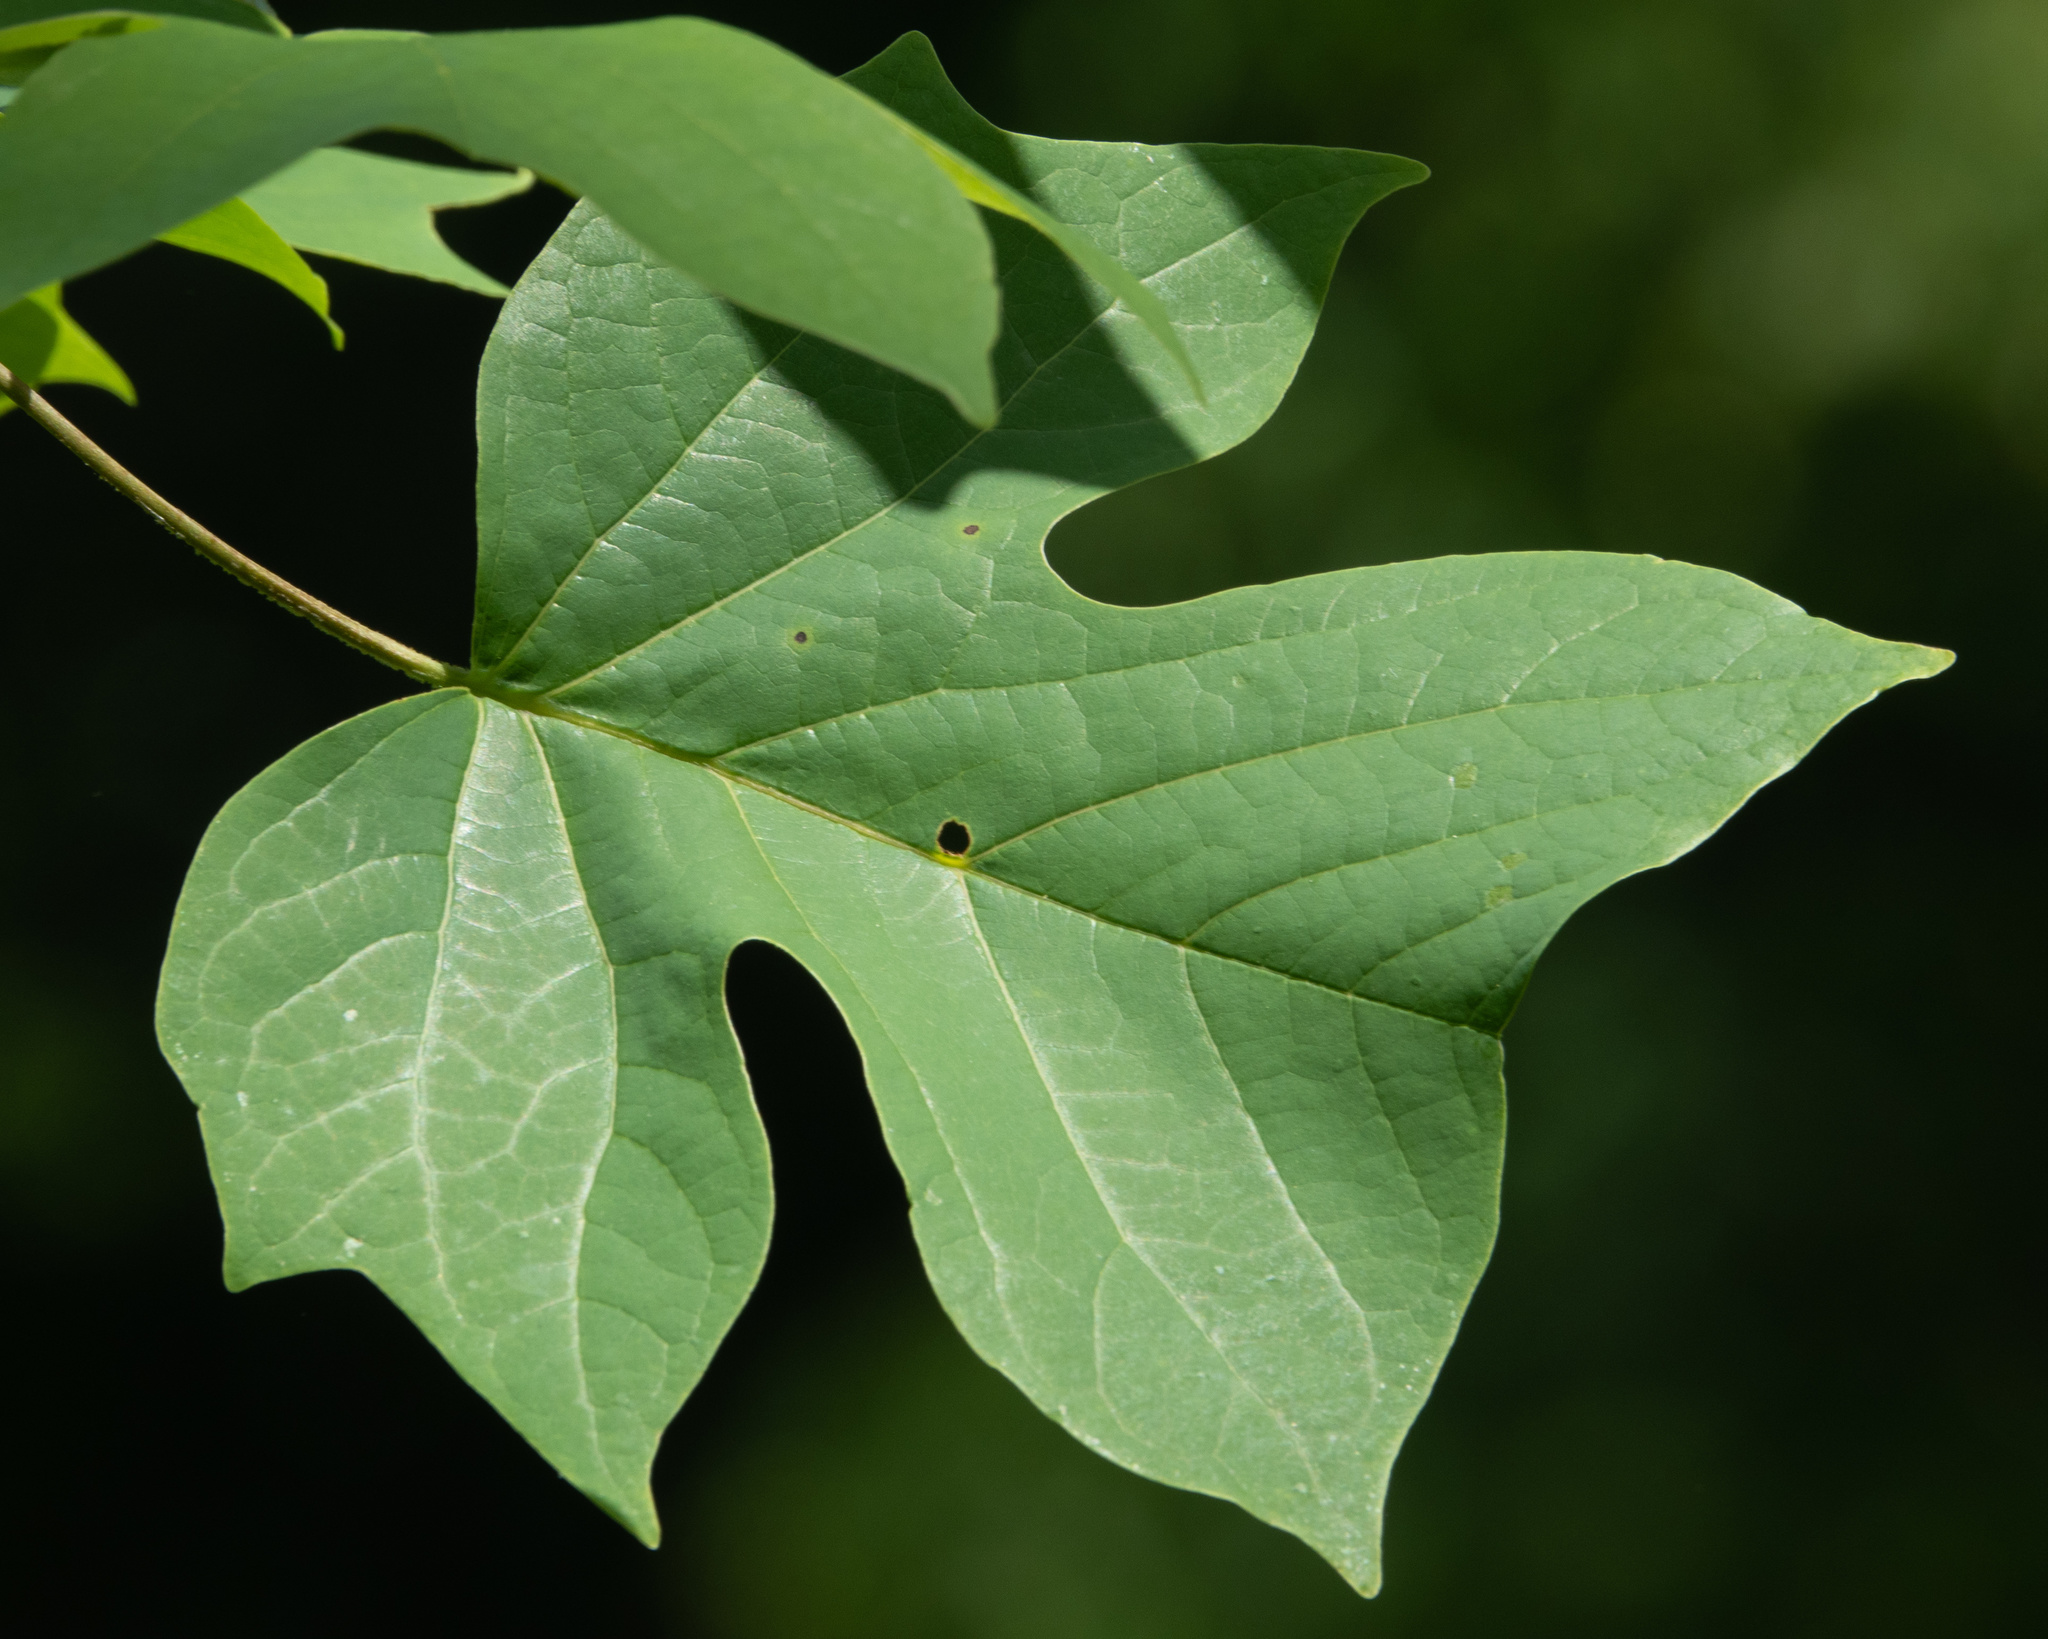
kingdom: Plantae
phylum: Tracheophyta
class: Magnoliopsida
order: Magnoliales
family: Magnoliaceae
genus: Liriodendron
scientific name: Liriodendron tulipifera
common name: Tulip tree
